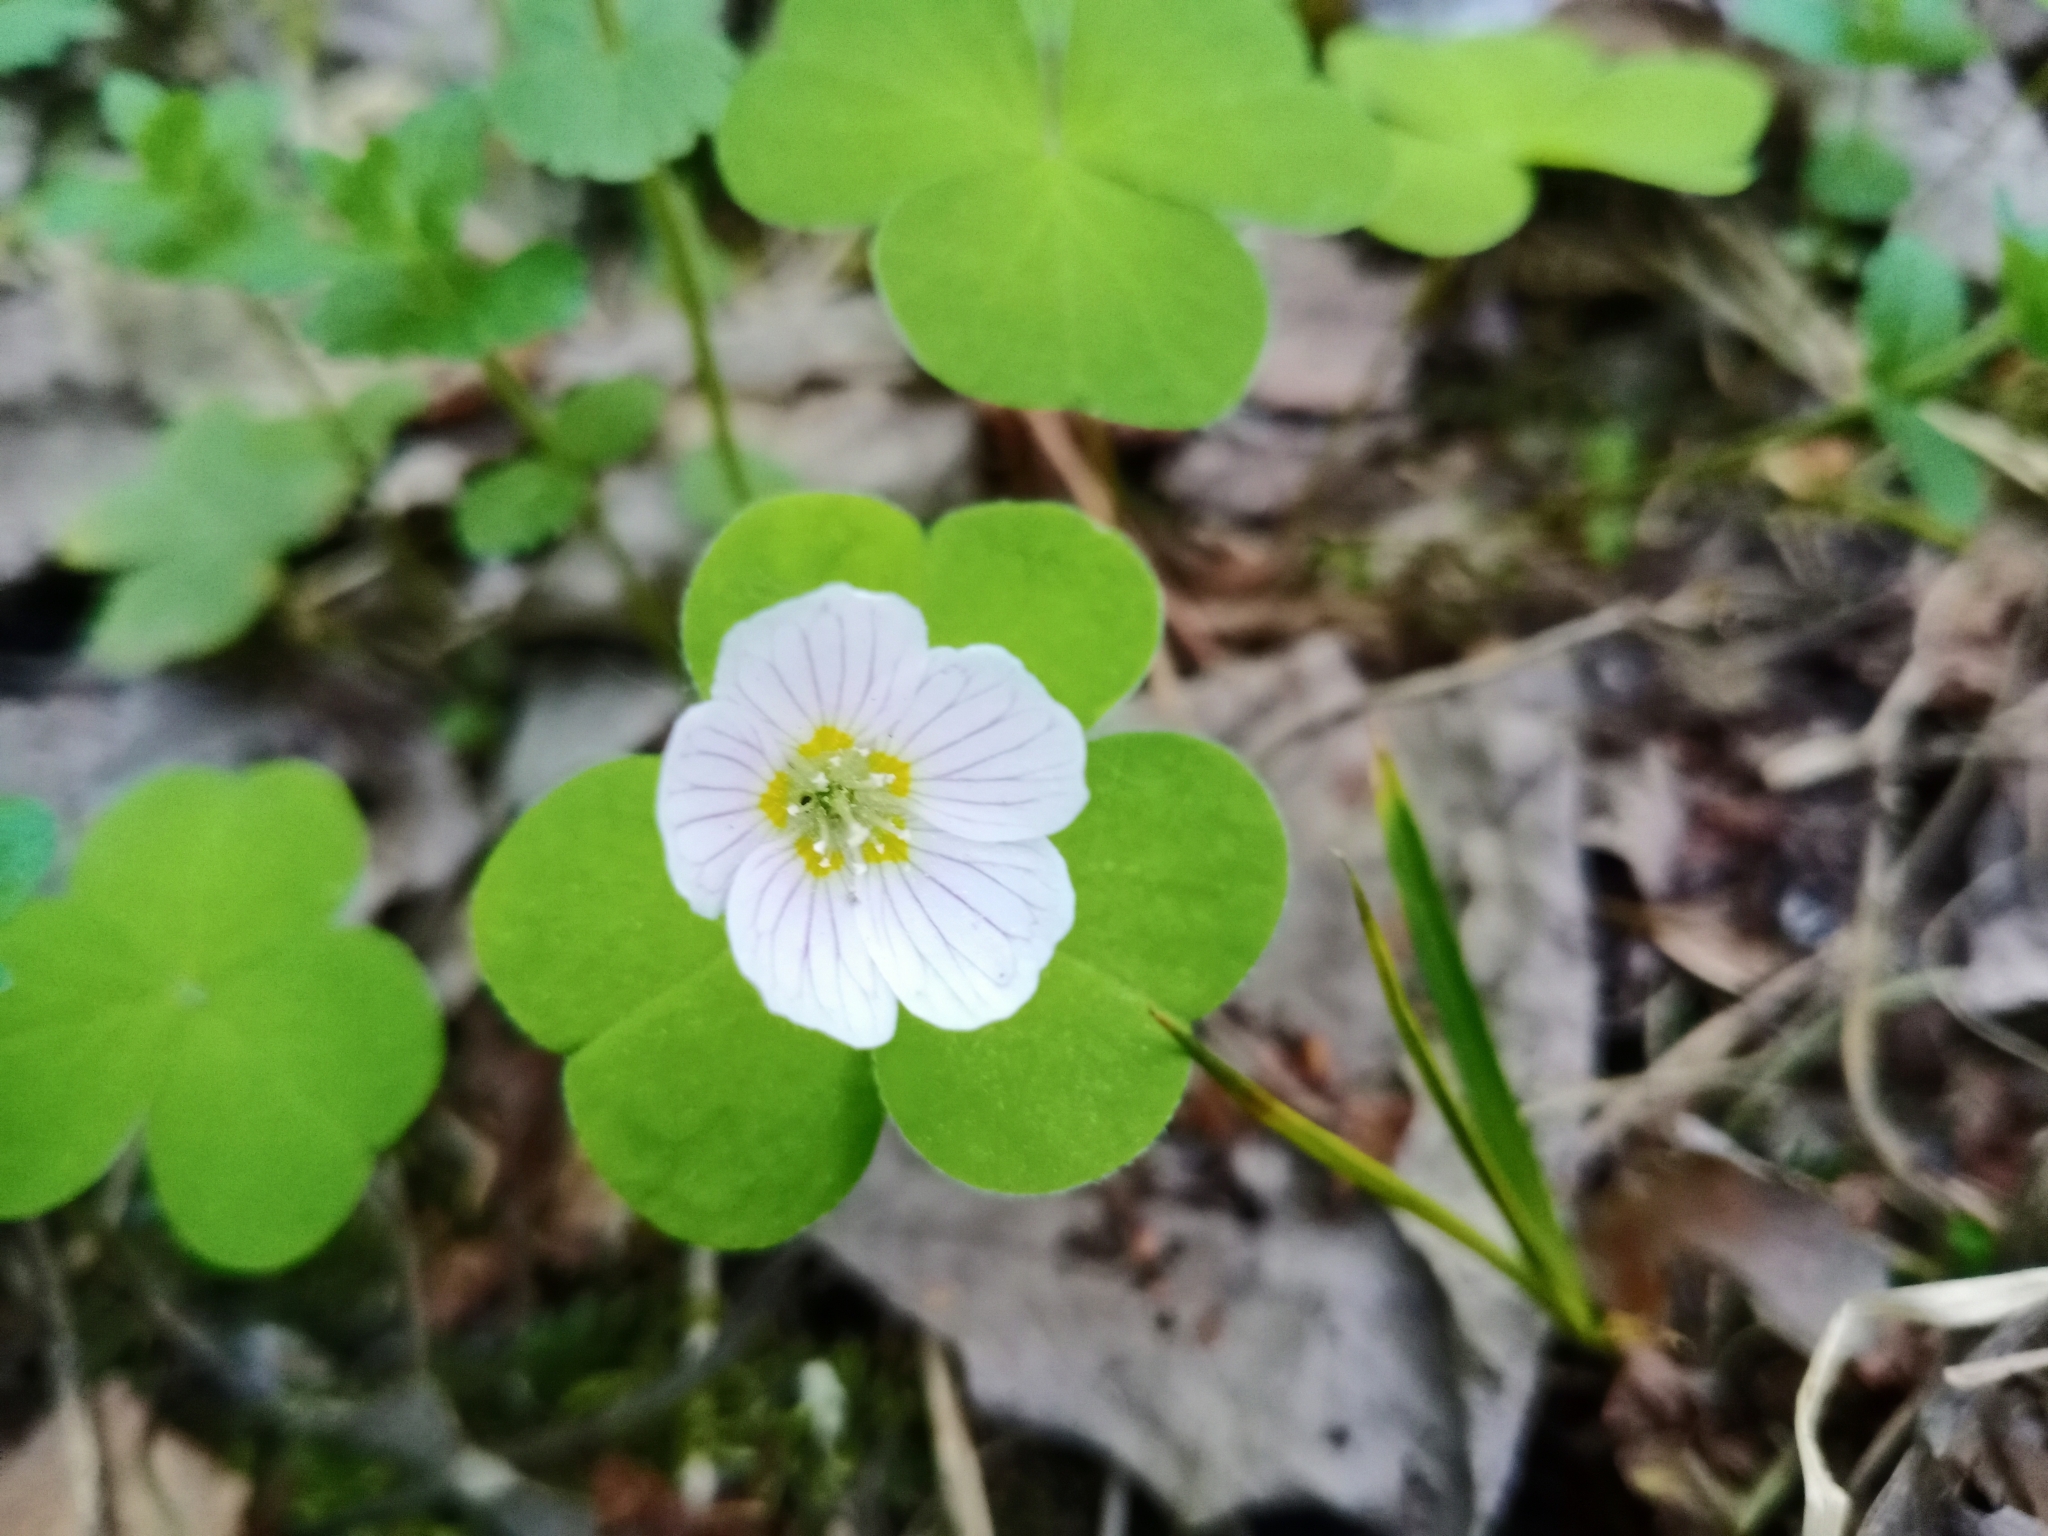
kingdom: Plantae
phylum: Tracheophyta
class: Magnoliopsida
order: Oxalidales
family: Oxalidaceae
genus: Oxalis
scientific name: Oxalis acetosella
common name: Wood-sorrel
